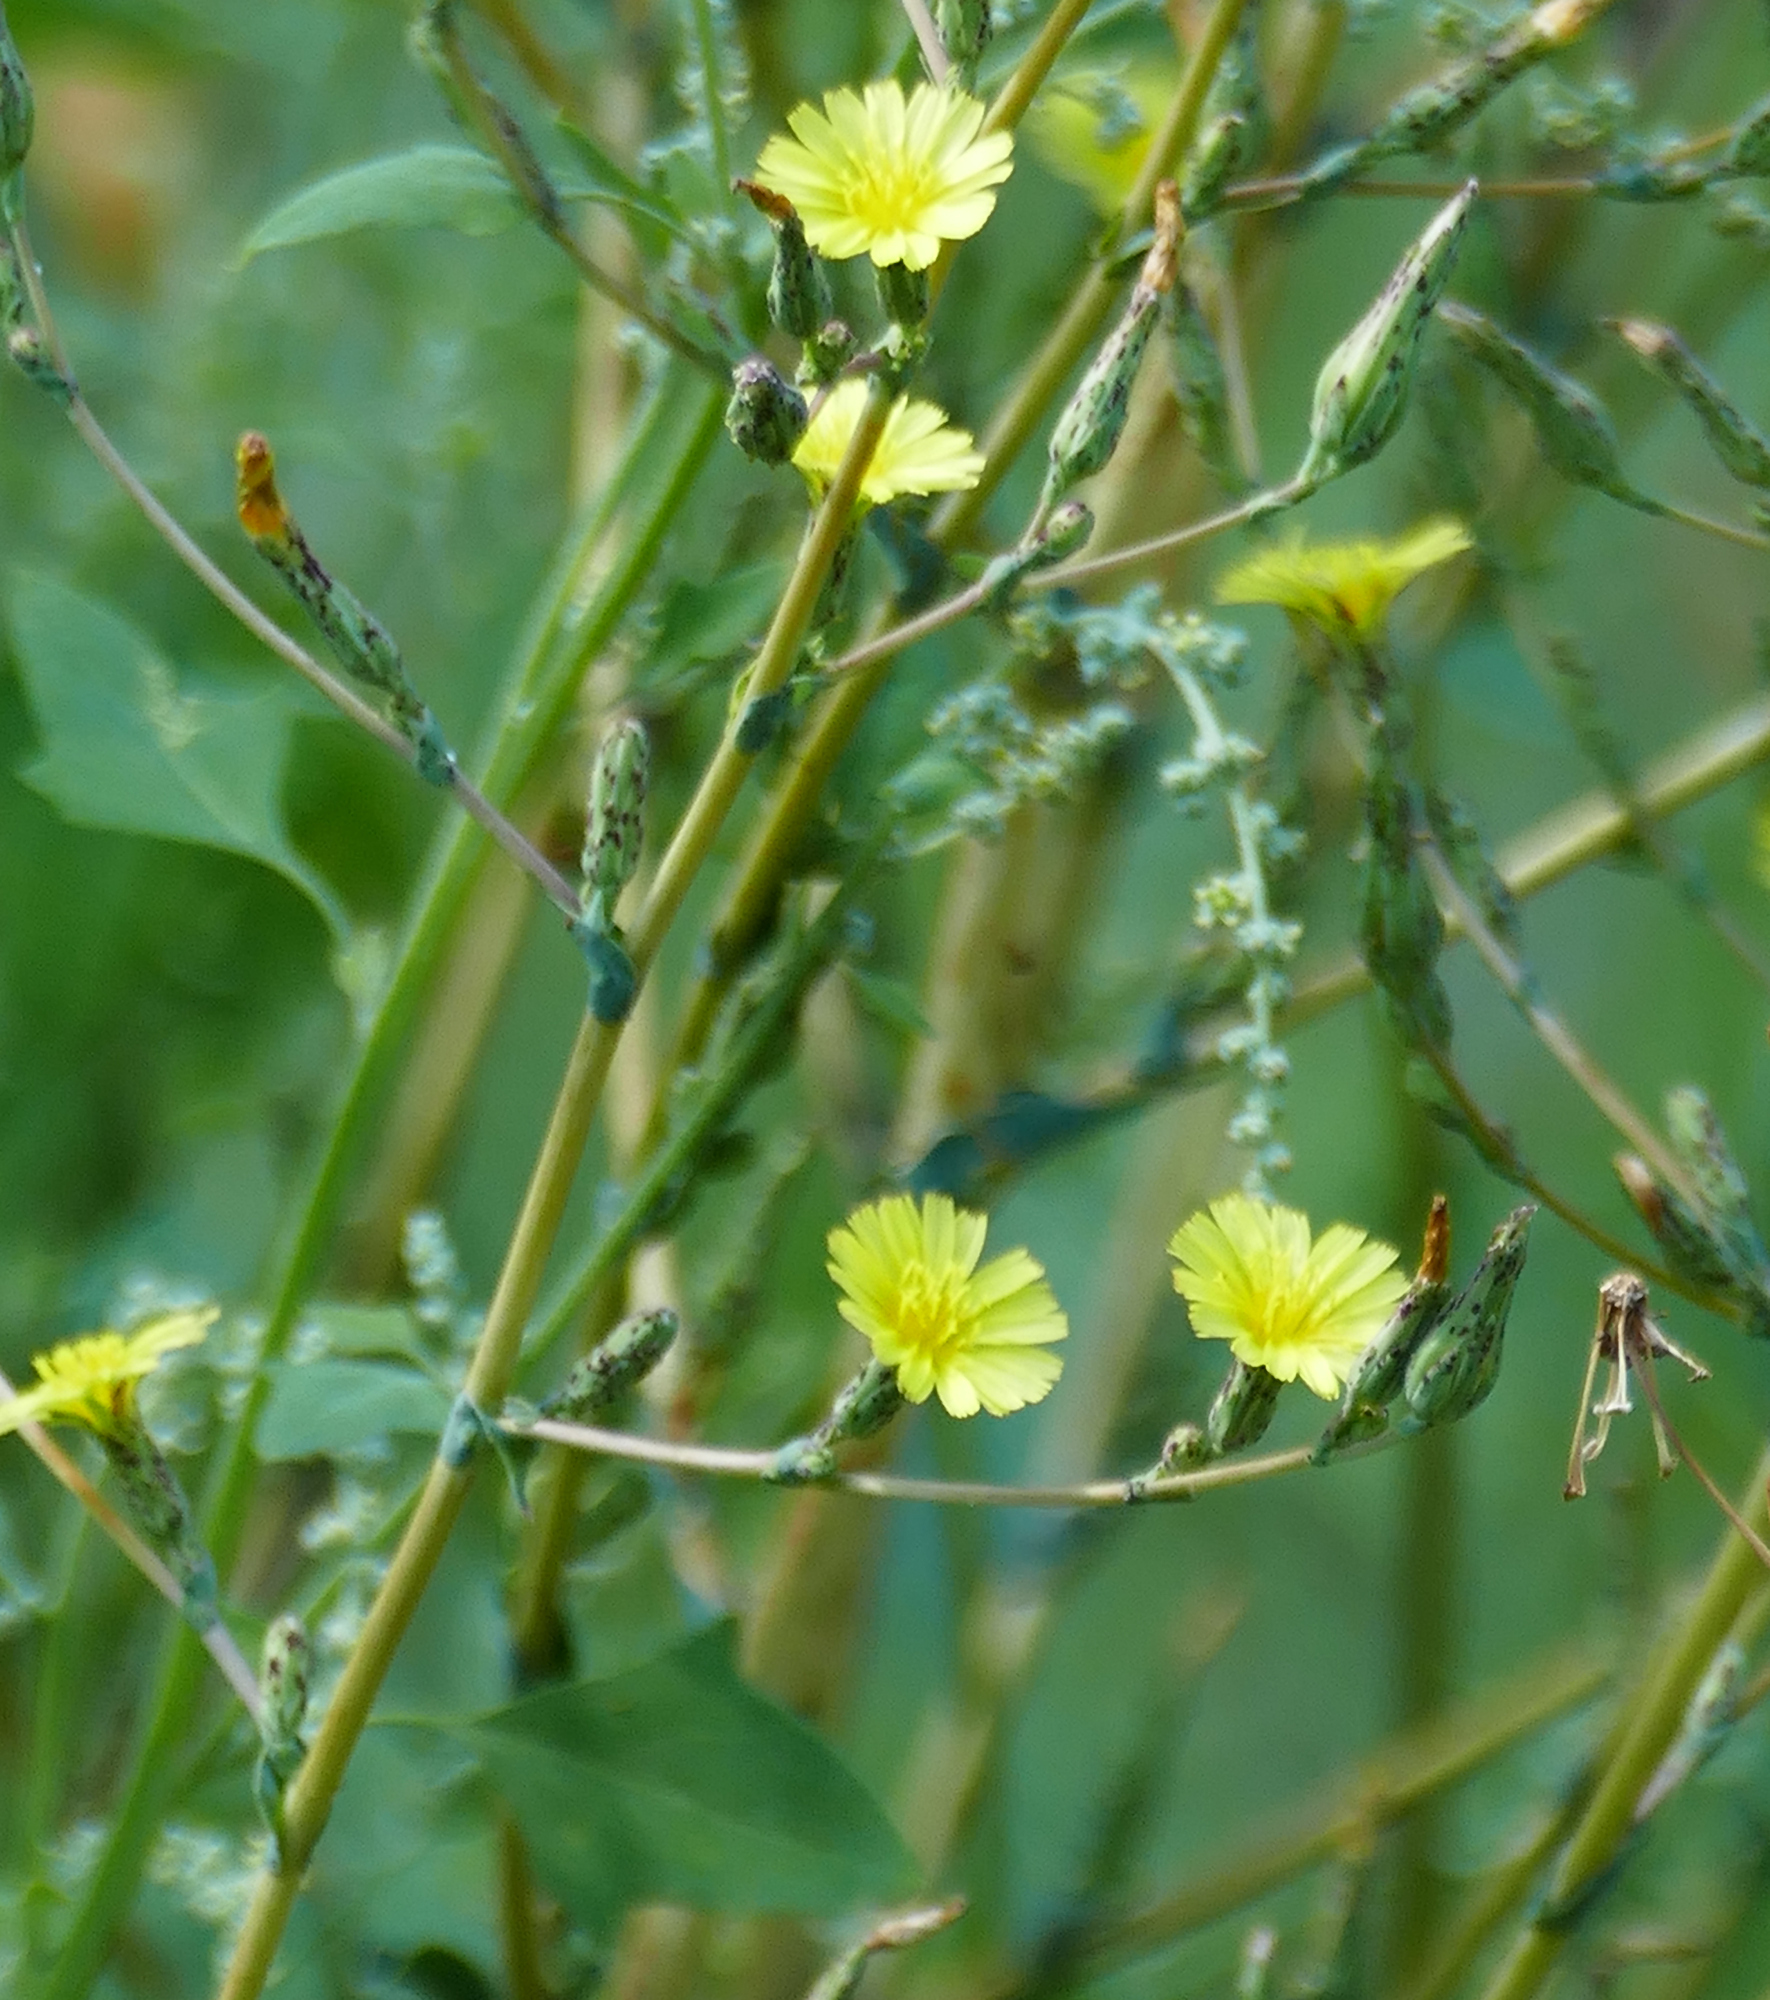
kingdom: Plantae
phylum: Tracheophyta
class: Magnoliopsida
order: Asterales
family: Asteraceae
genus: Lactuca
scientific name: Lactuca serriola
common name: Prickly lettuce
